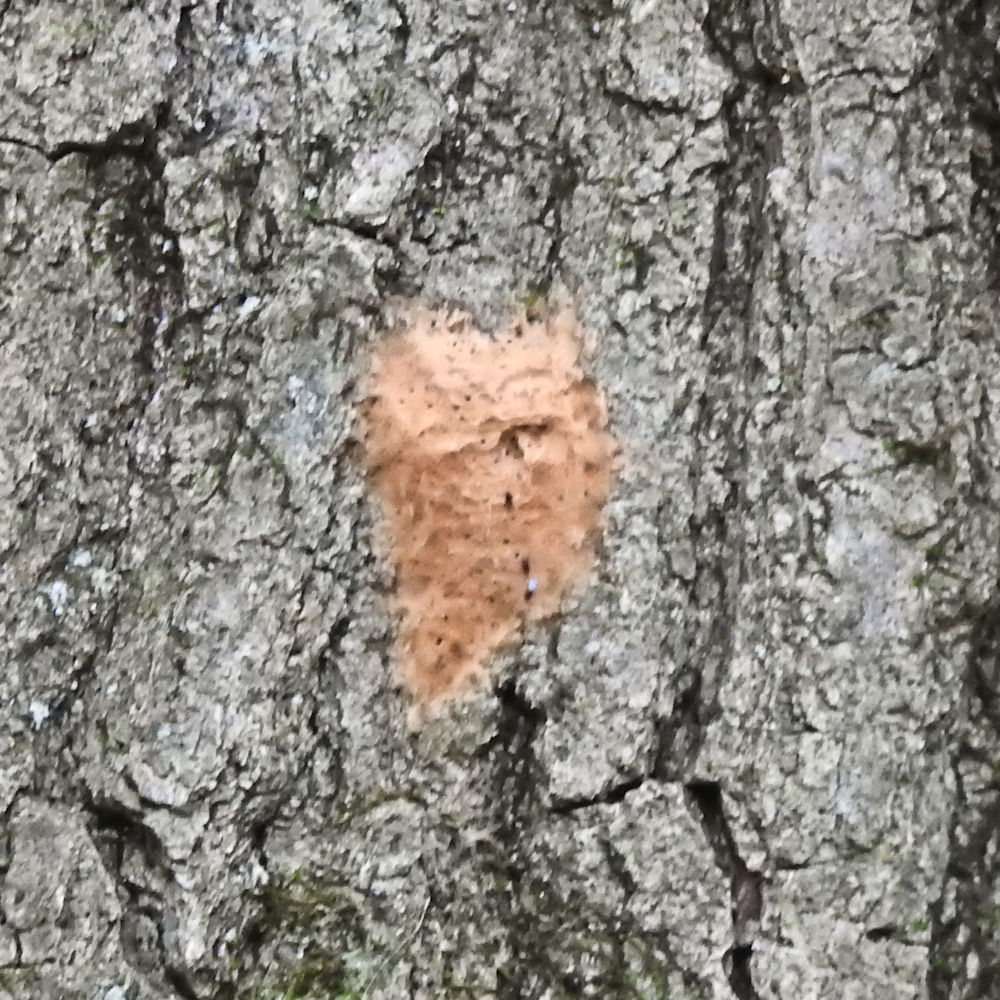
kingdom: Animalia
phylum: Arthropoda
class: Insecta
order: Lepidoptera
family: Erebidae
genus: Lymantria
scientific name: Lymantria dispar
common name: Gypsy moth
